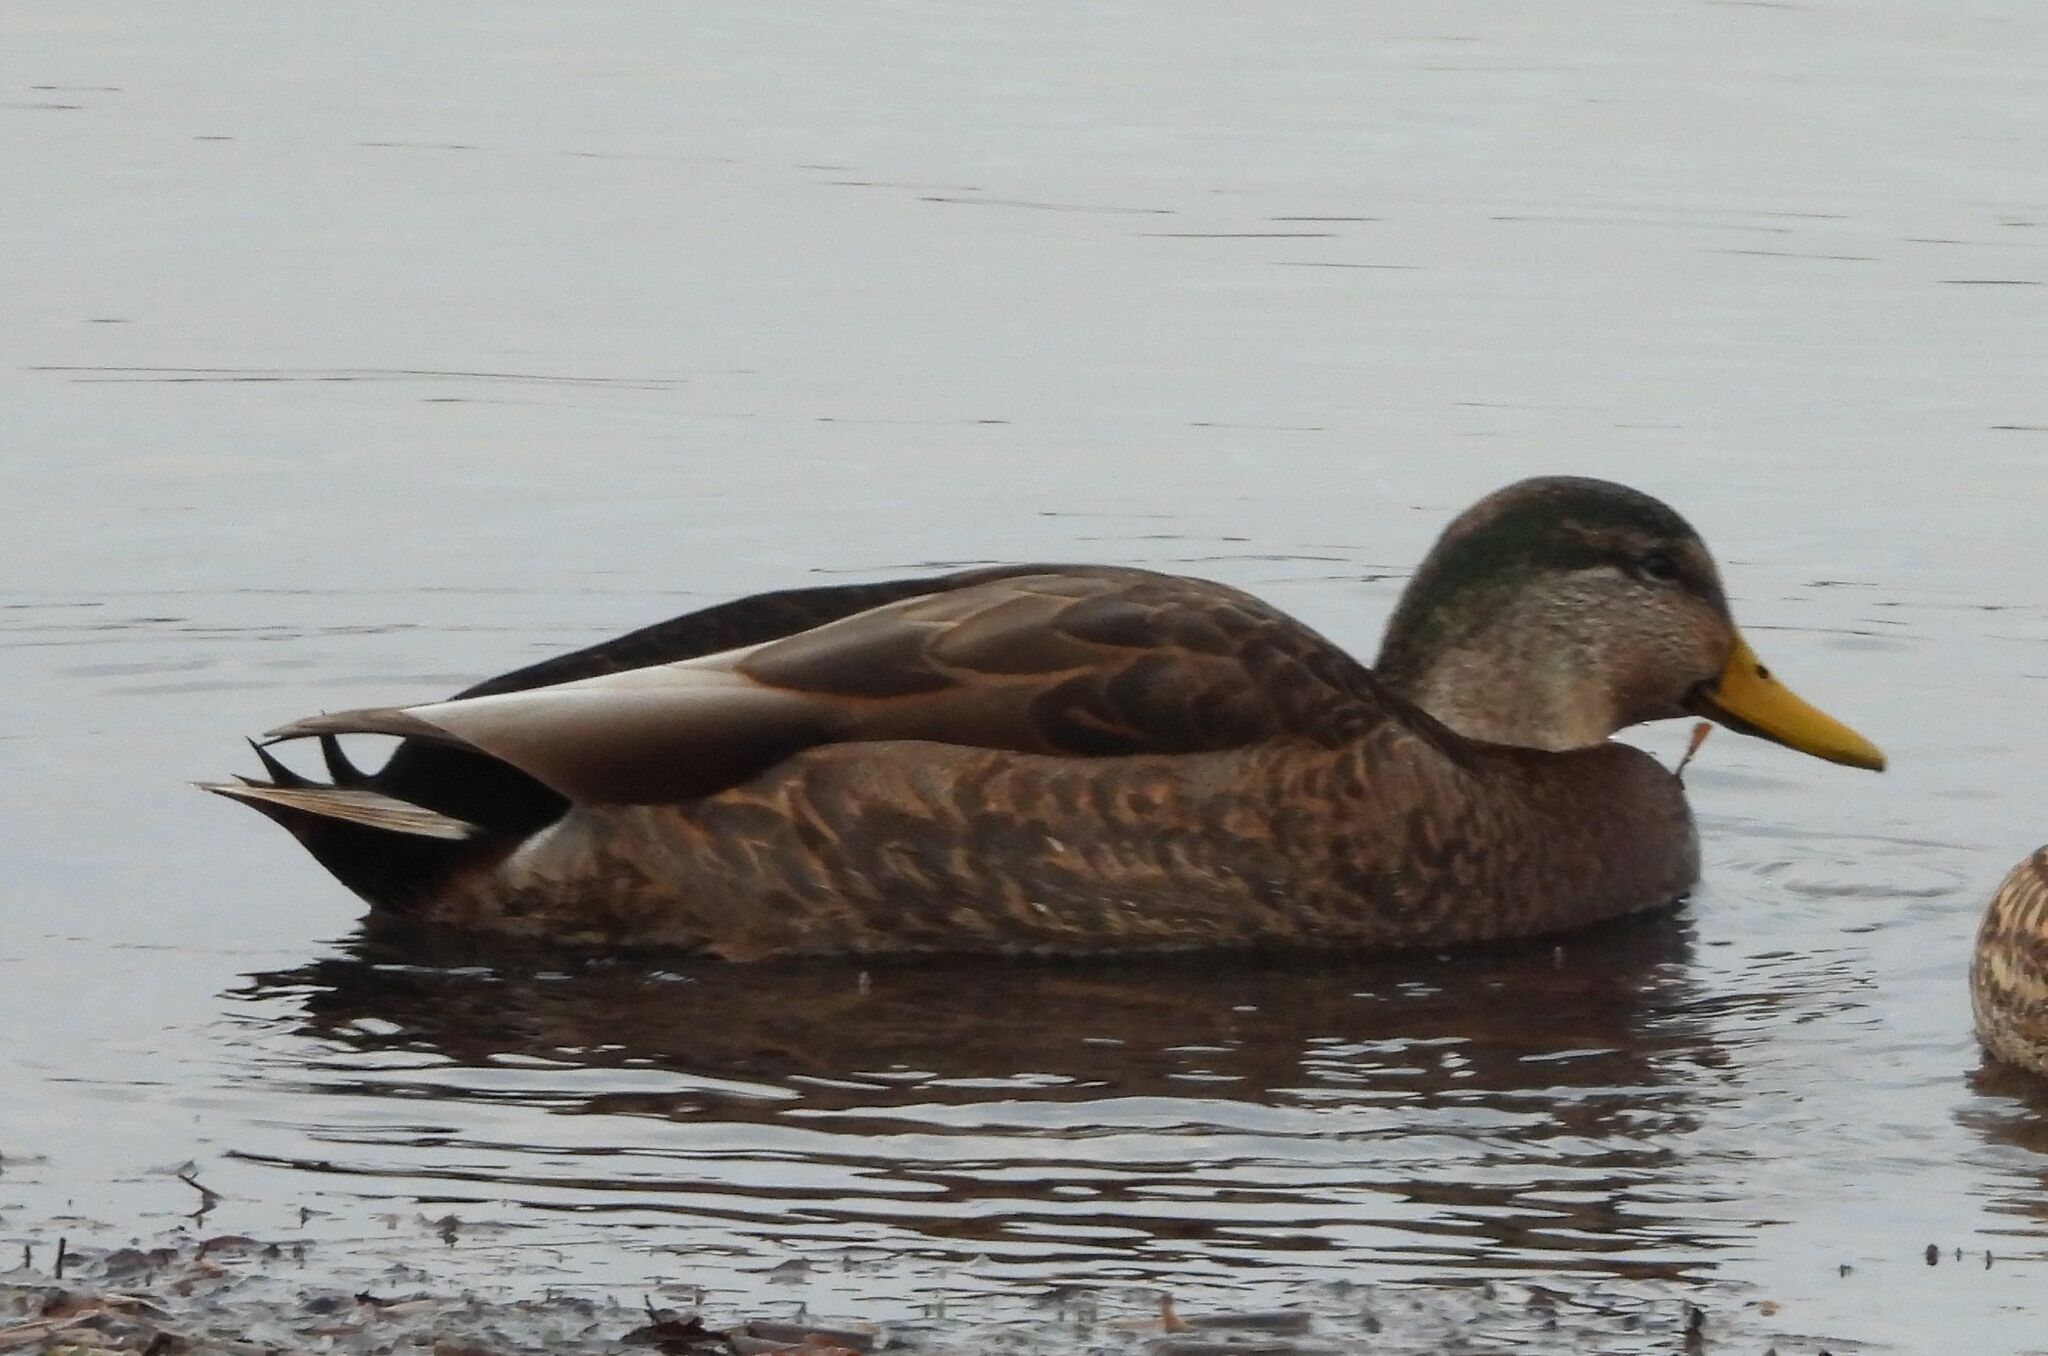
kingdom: Animalia
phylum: Chordata
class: Aves
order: Anseriformes
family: Anatidae
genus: Anas
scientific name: Anas
